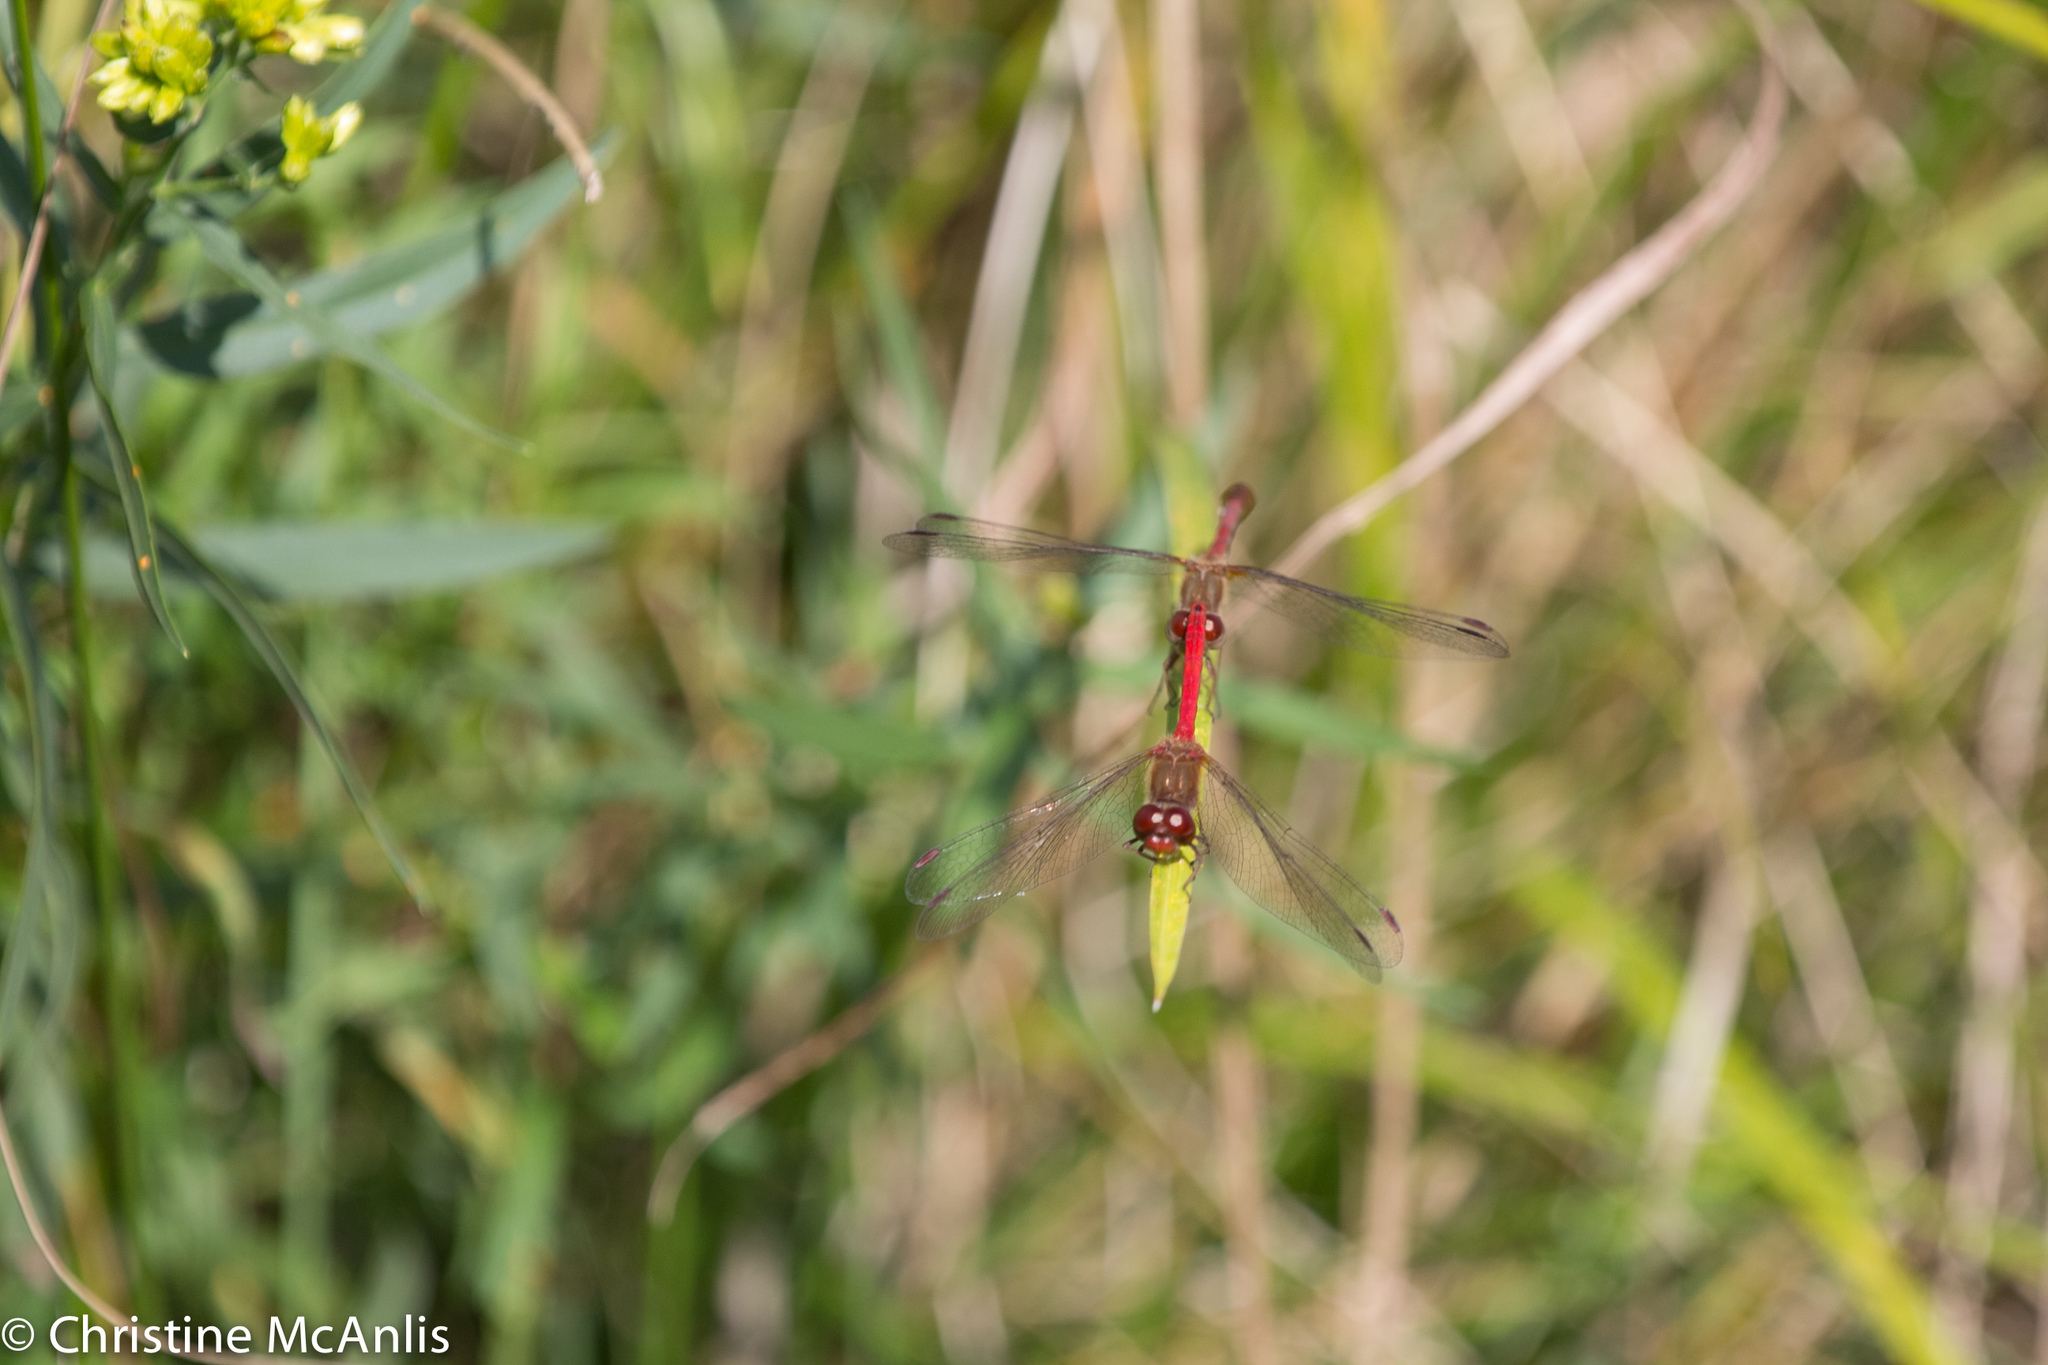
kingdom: Animalia
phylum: Arthropoda
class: Insecta
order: Odonata
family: Libellulidae
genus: Sympetrum
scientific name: Sympetrum vicinum
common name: Autumn meadowhawk
